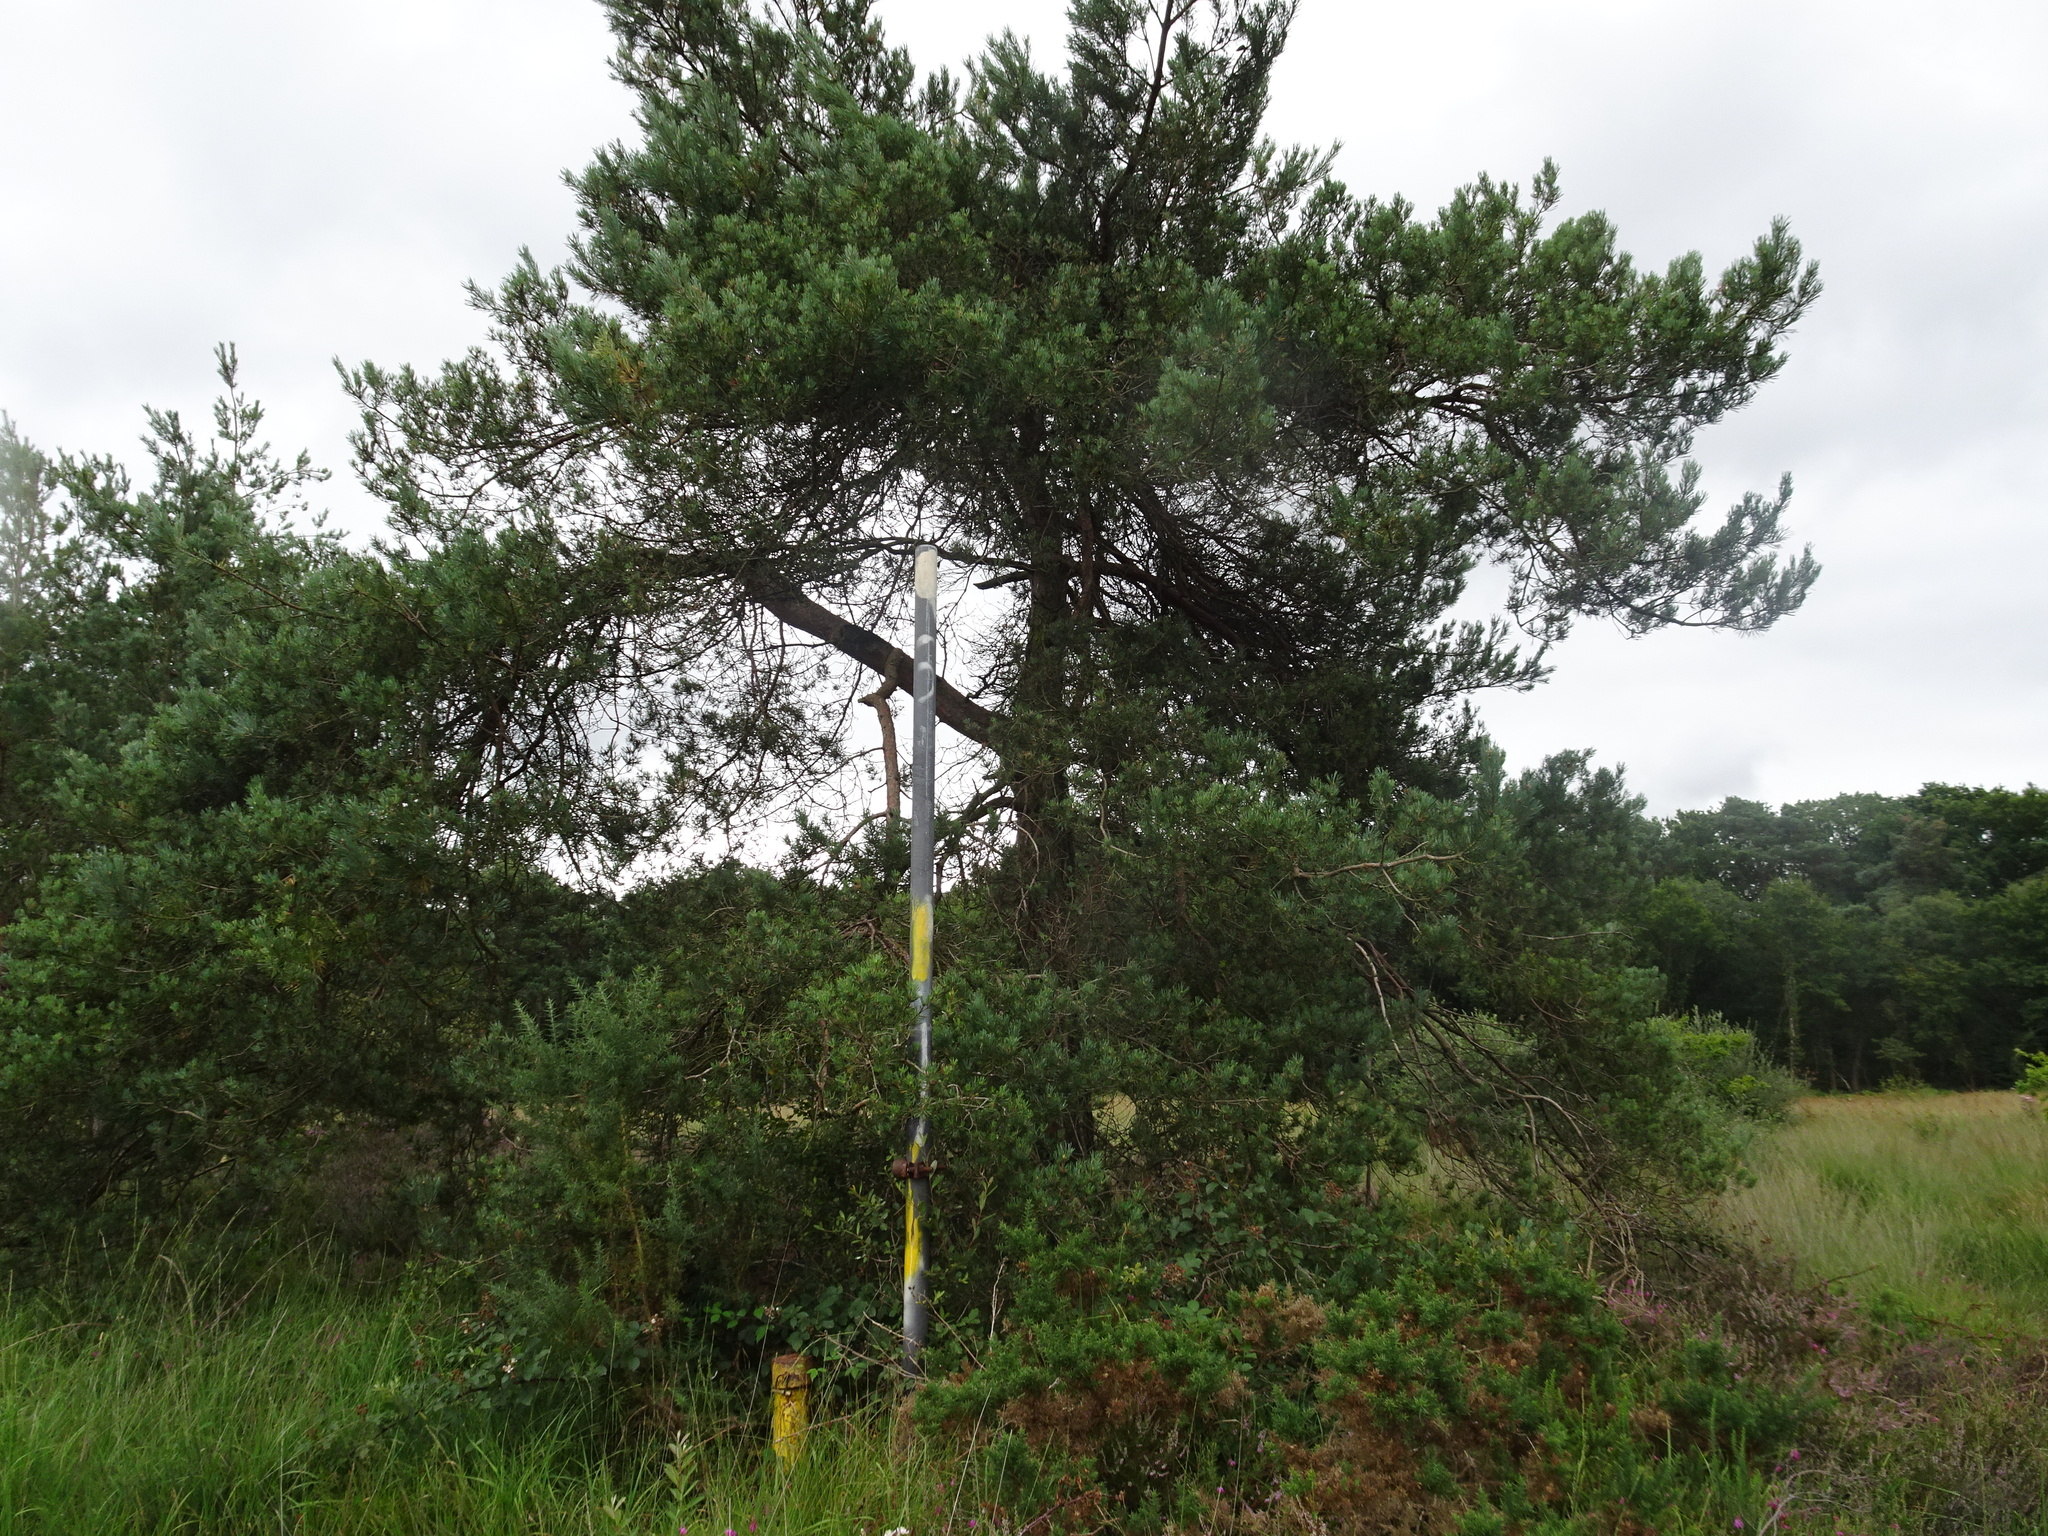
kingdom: Plantae
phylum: Tracheophyta
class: Pinopsida
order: Pinales
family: Pinaceae
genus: Pinus
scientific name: Pinus sylvestris
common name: Scots pine
